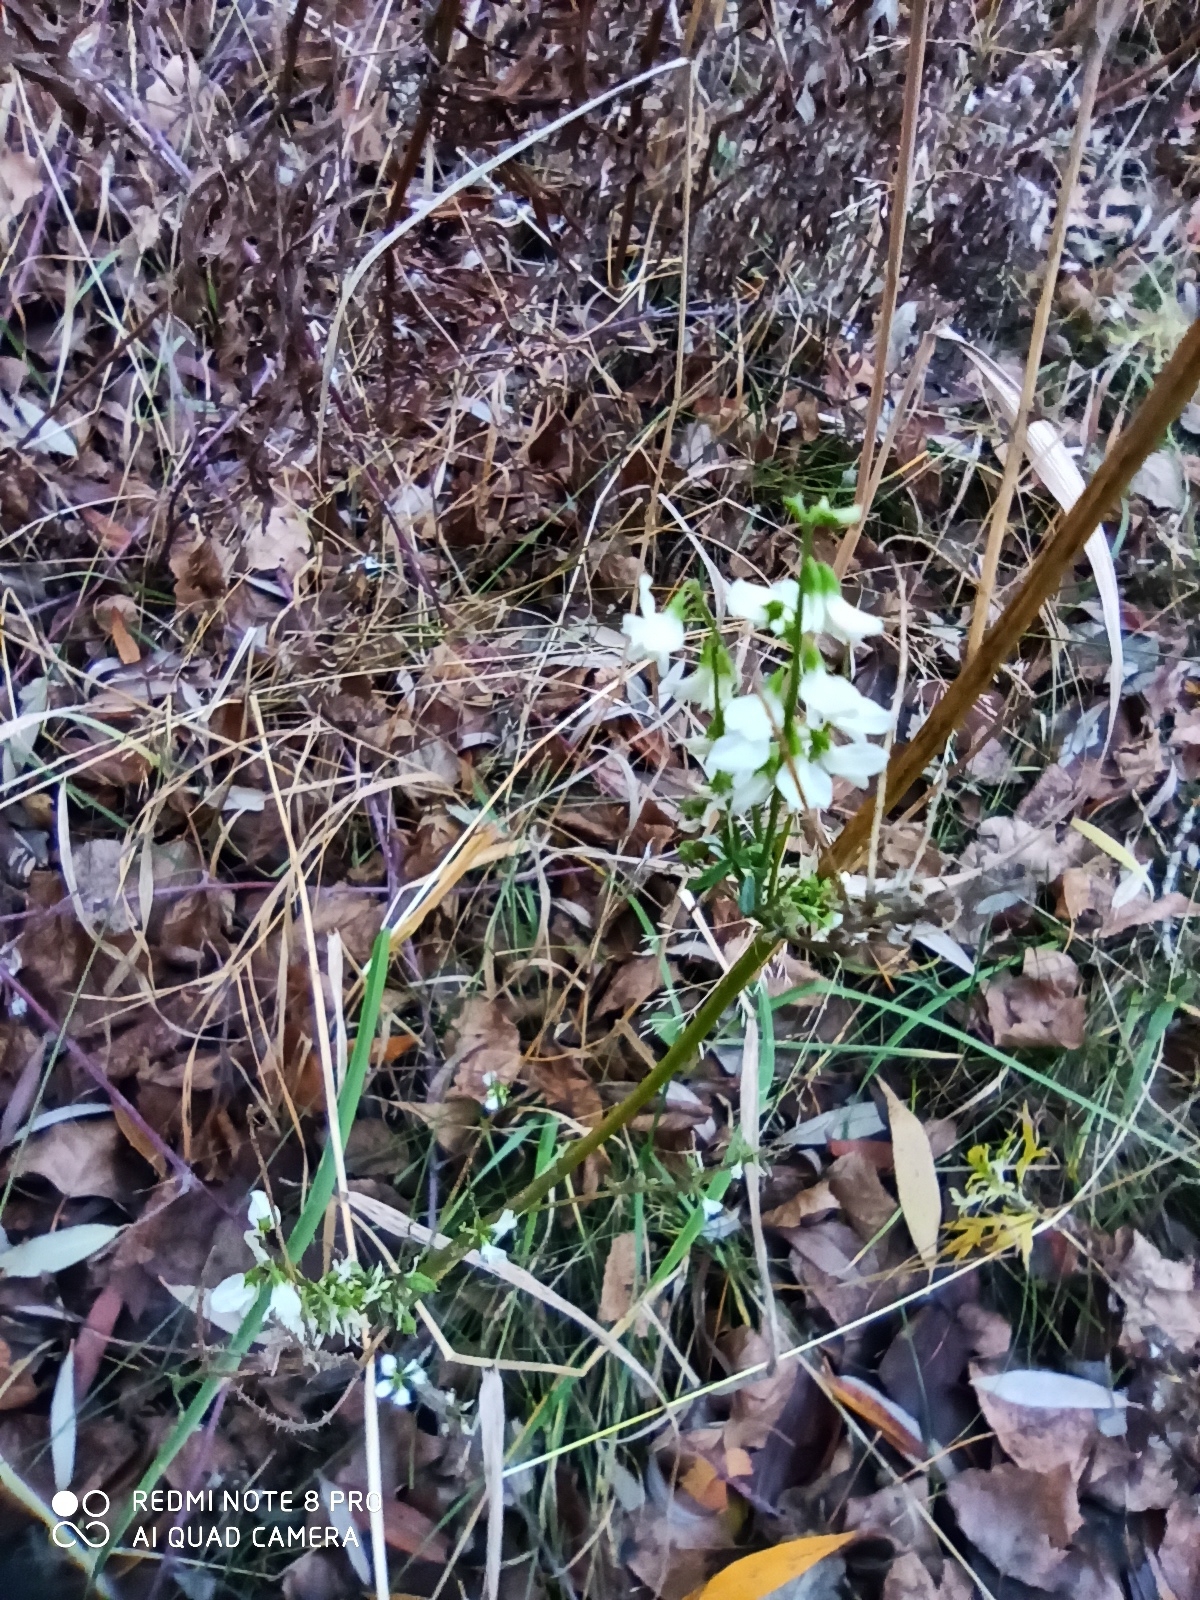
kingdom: Plantae
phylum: Tracheophyta
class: Magnoliopsida
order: Fabales
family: Fabaceae
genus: Melilotus
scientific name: Melilotus albus
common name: White melilot
